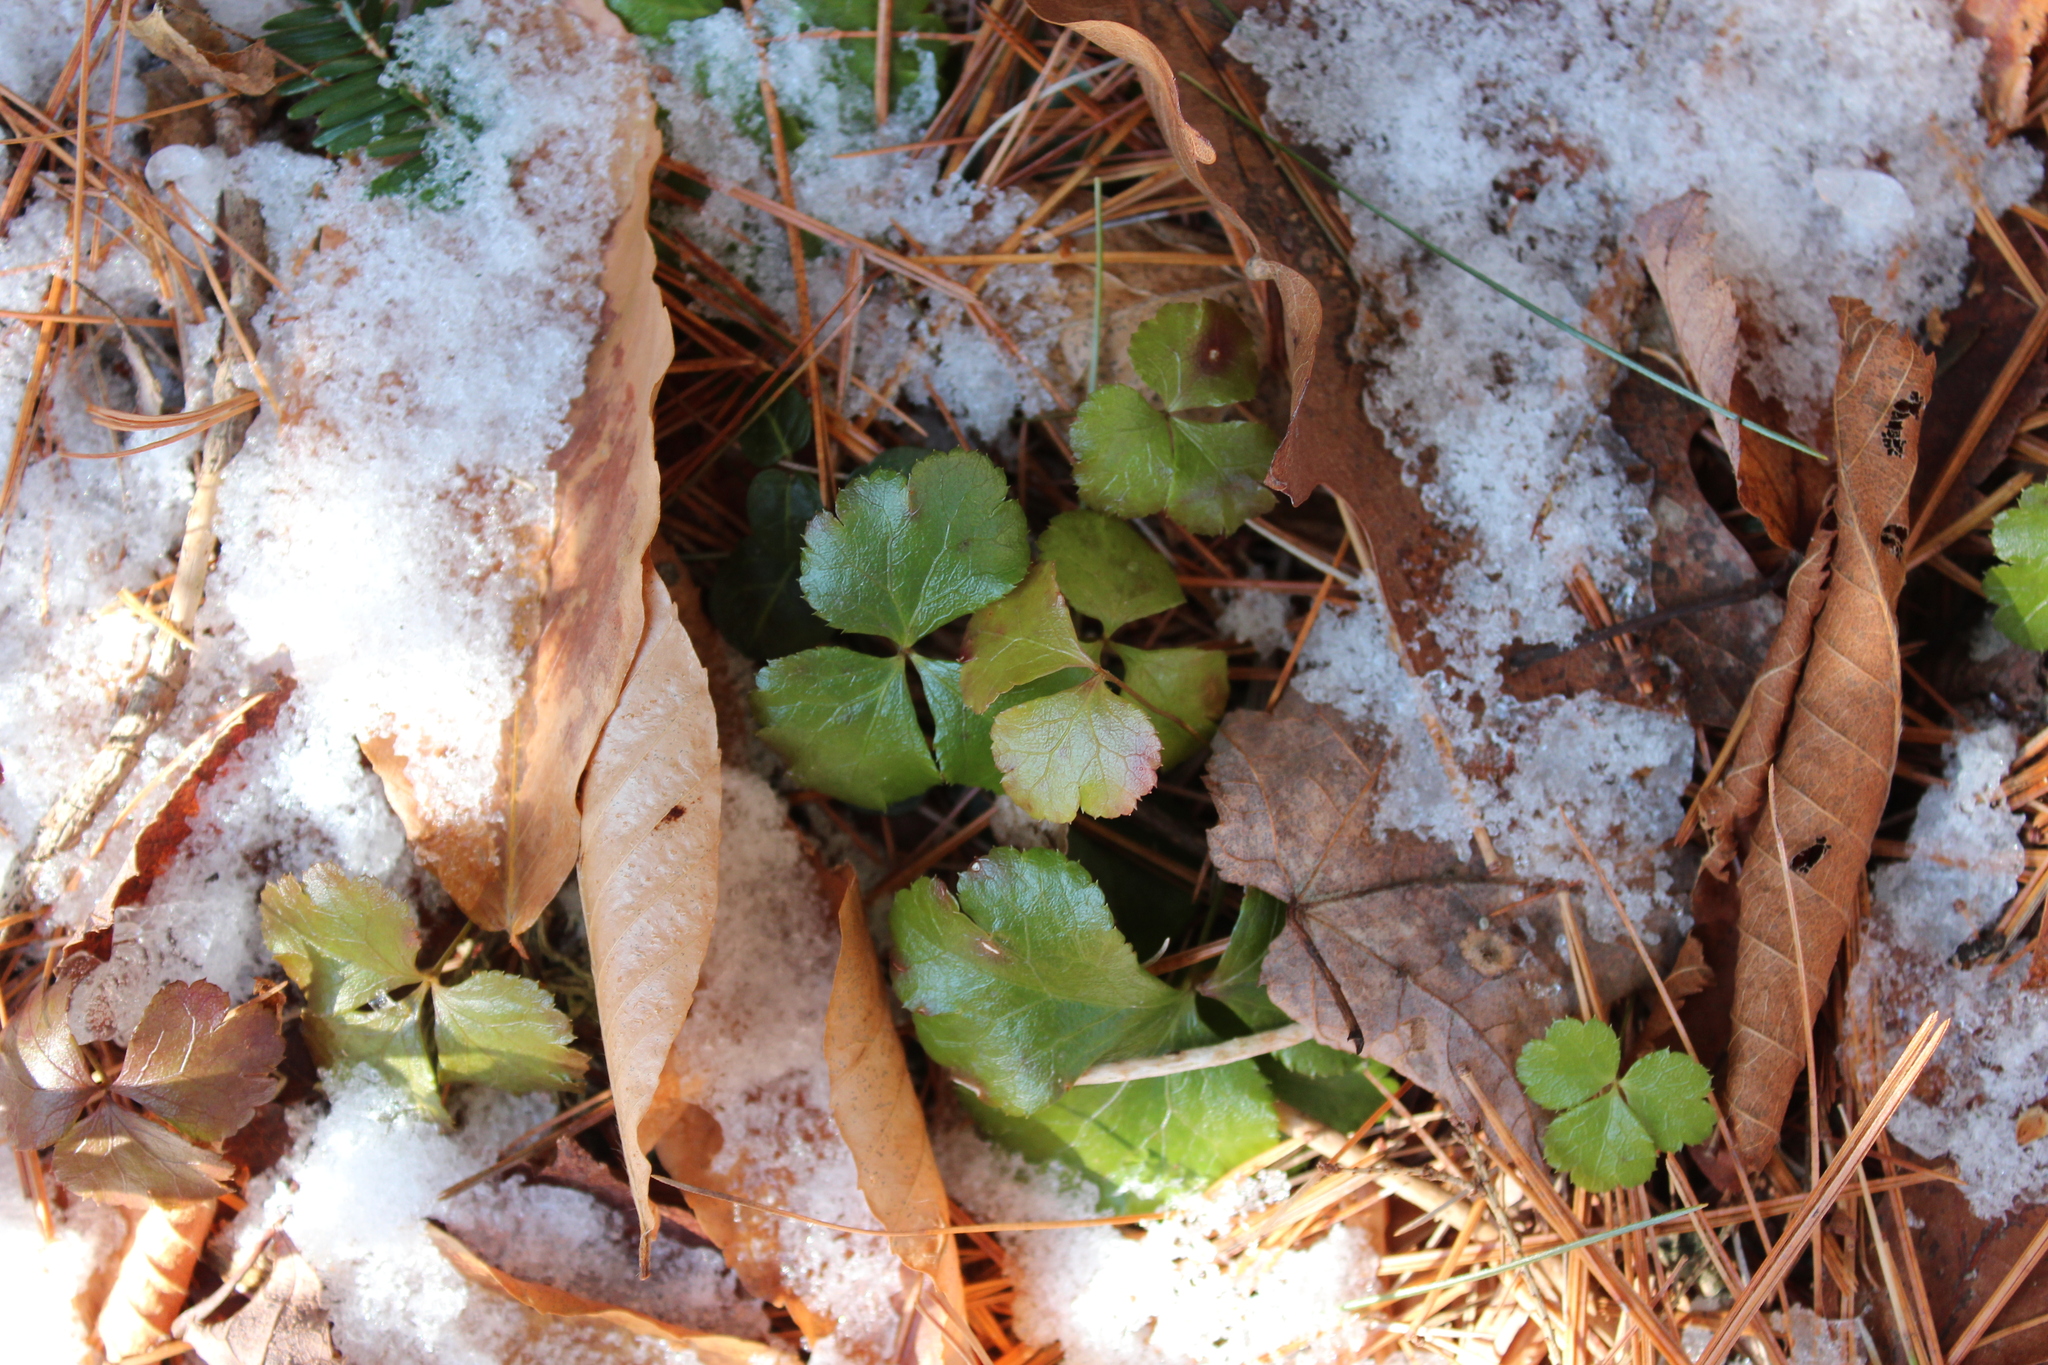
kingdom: Plantae
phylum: Tracheophyta
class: Magnoliopsida
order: Fagales
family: Fagaceae
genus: Fagus
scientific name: Fagus grandifolia
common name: American beech
